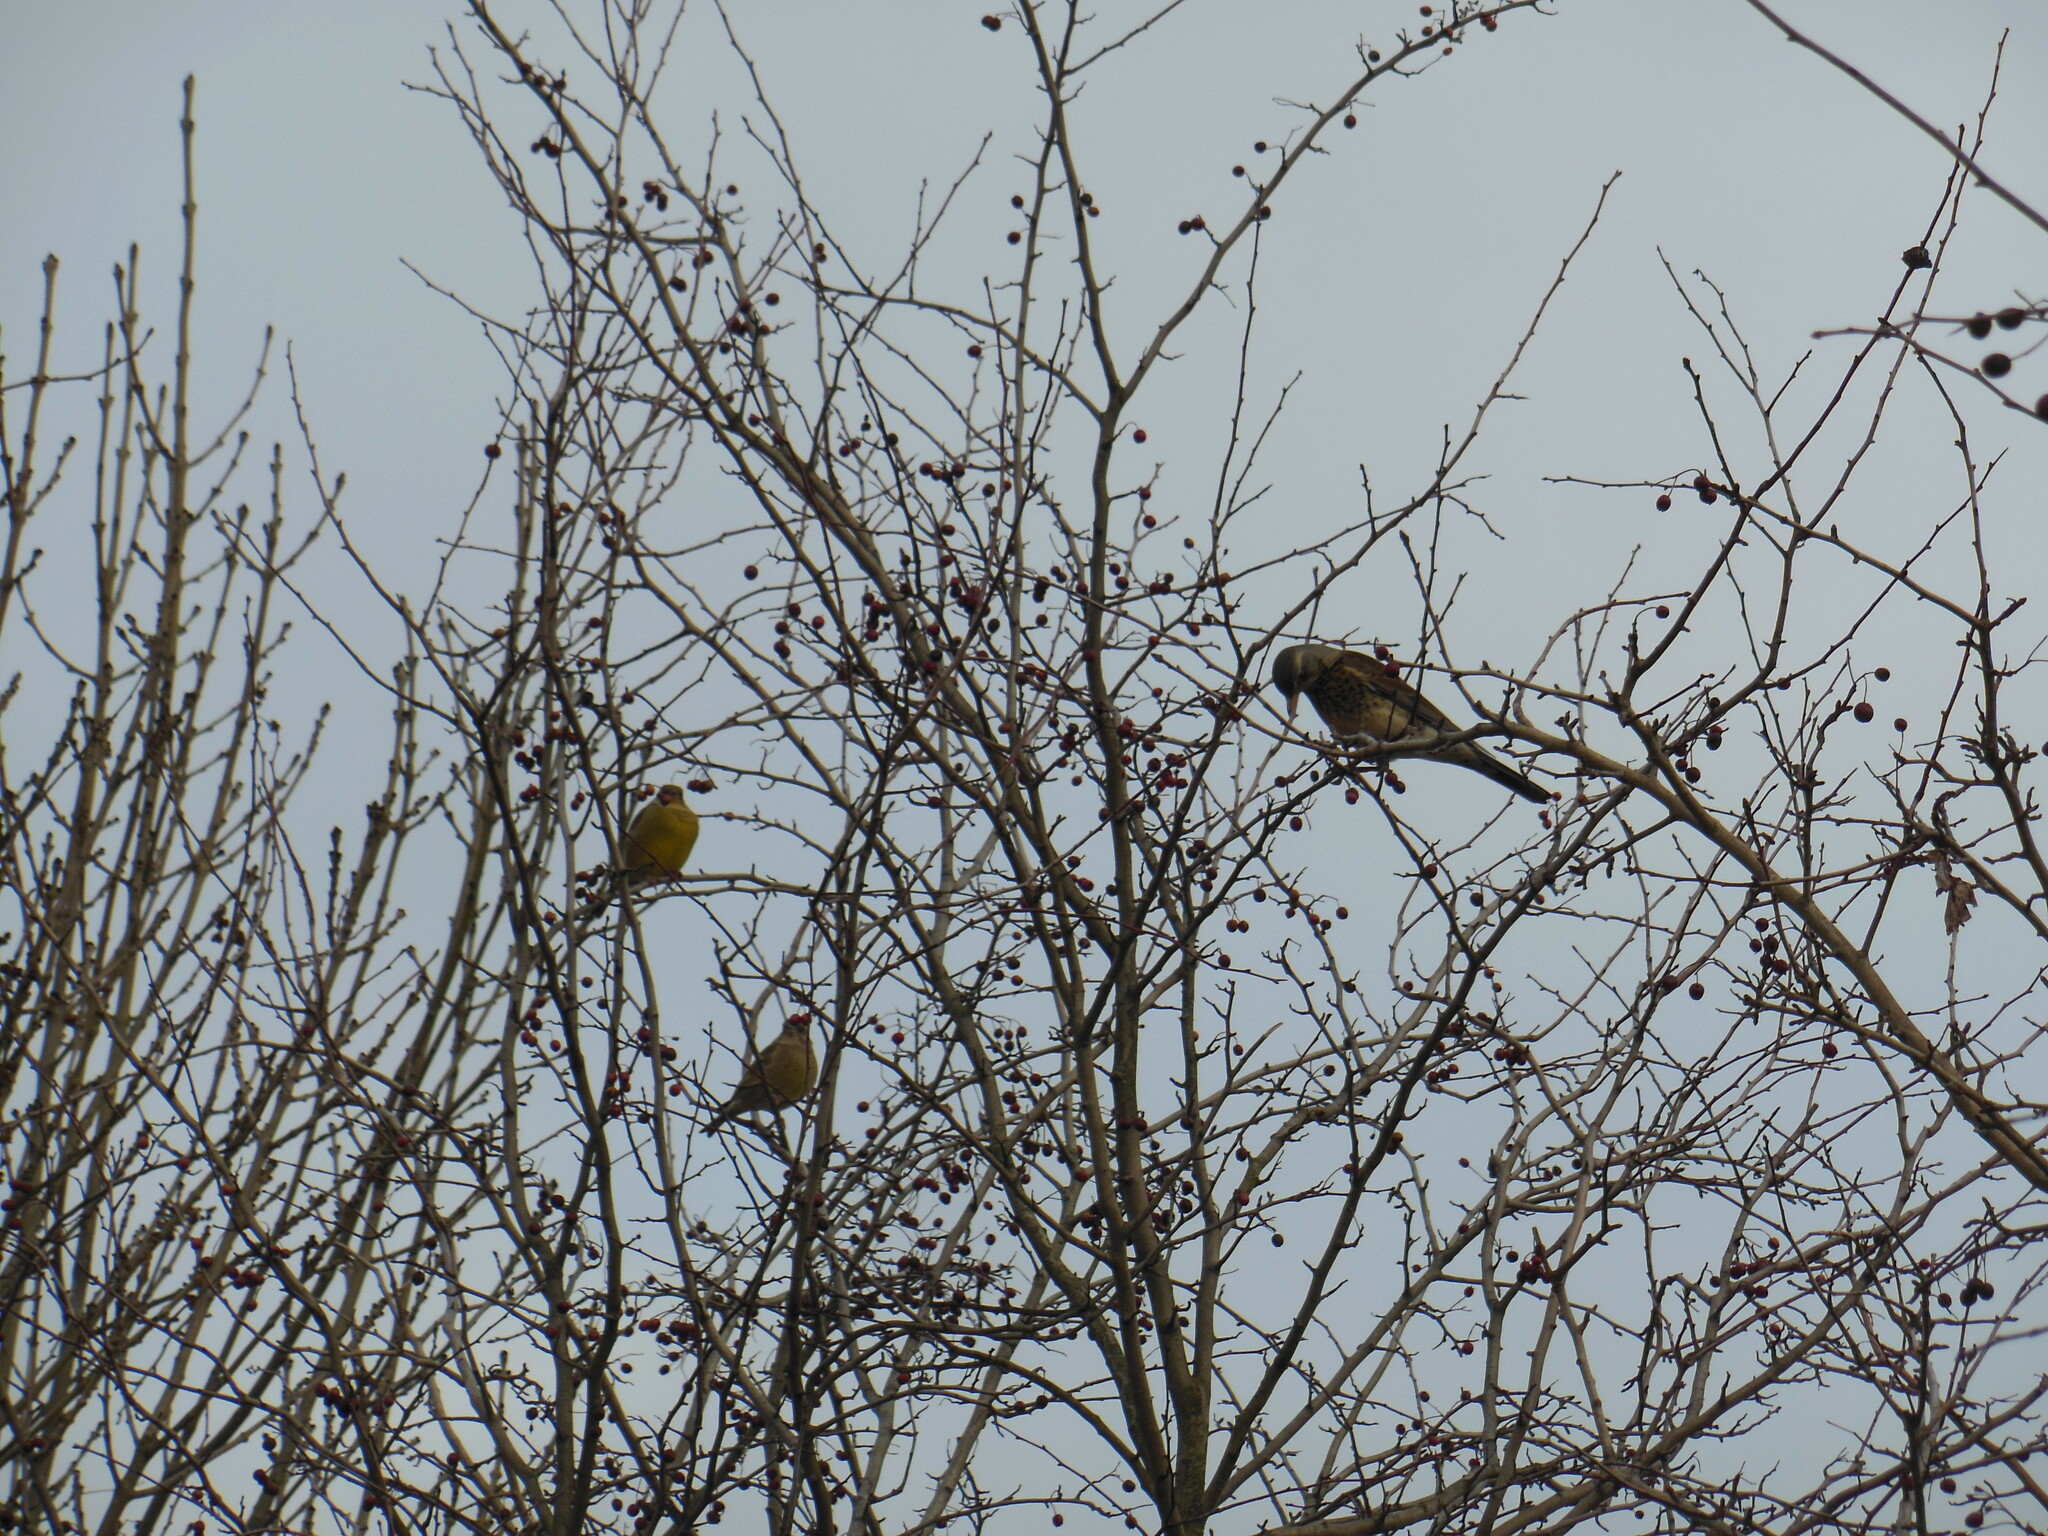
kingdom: Plantae
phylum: Tracheophyta
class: Liliopsida
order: Poales
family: Poaceae
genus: Chloris
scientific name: Chloris chloris
